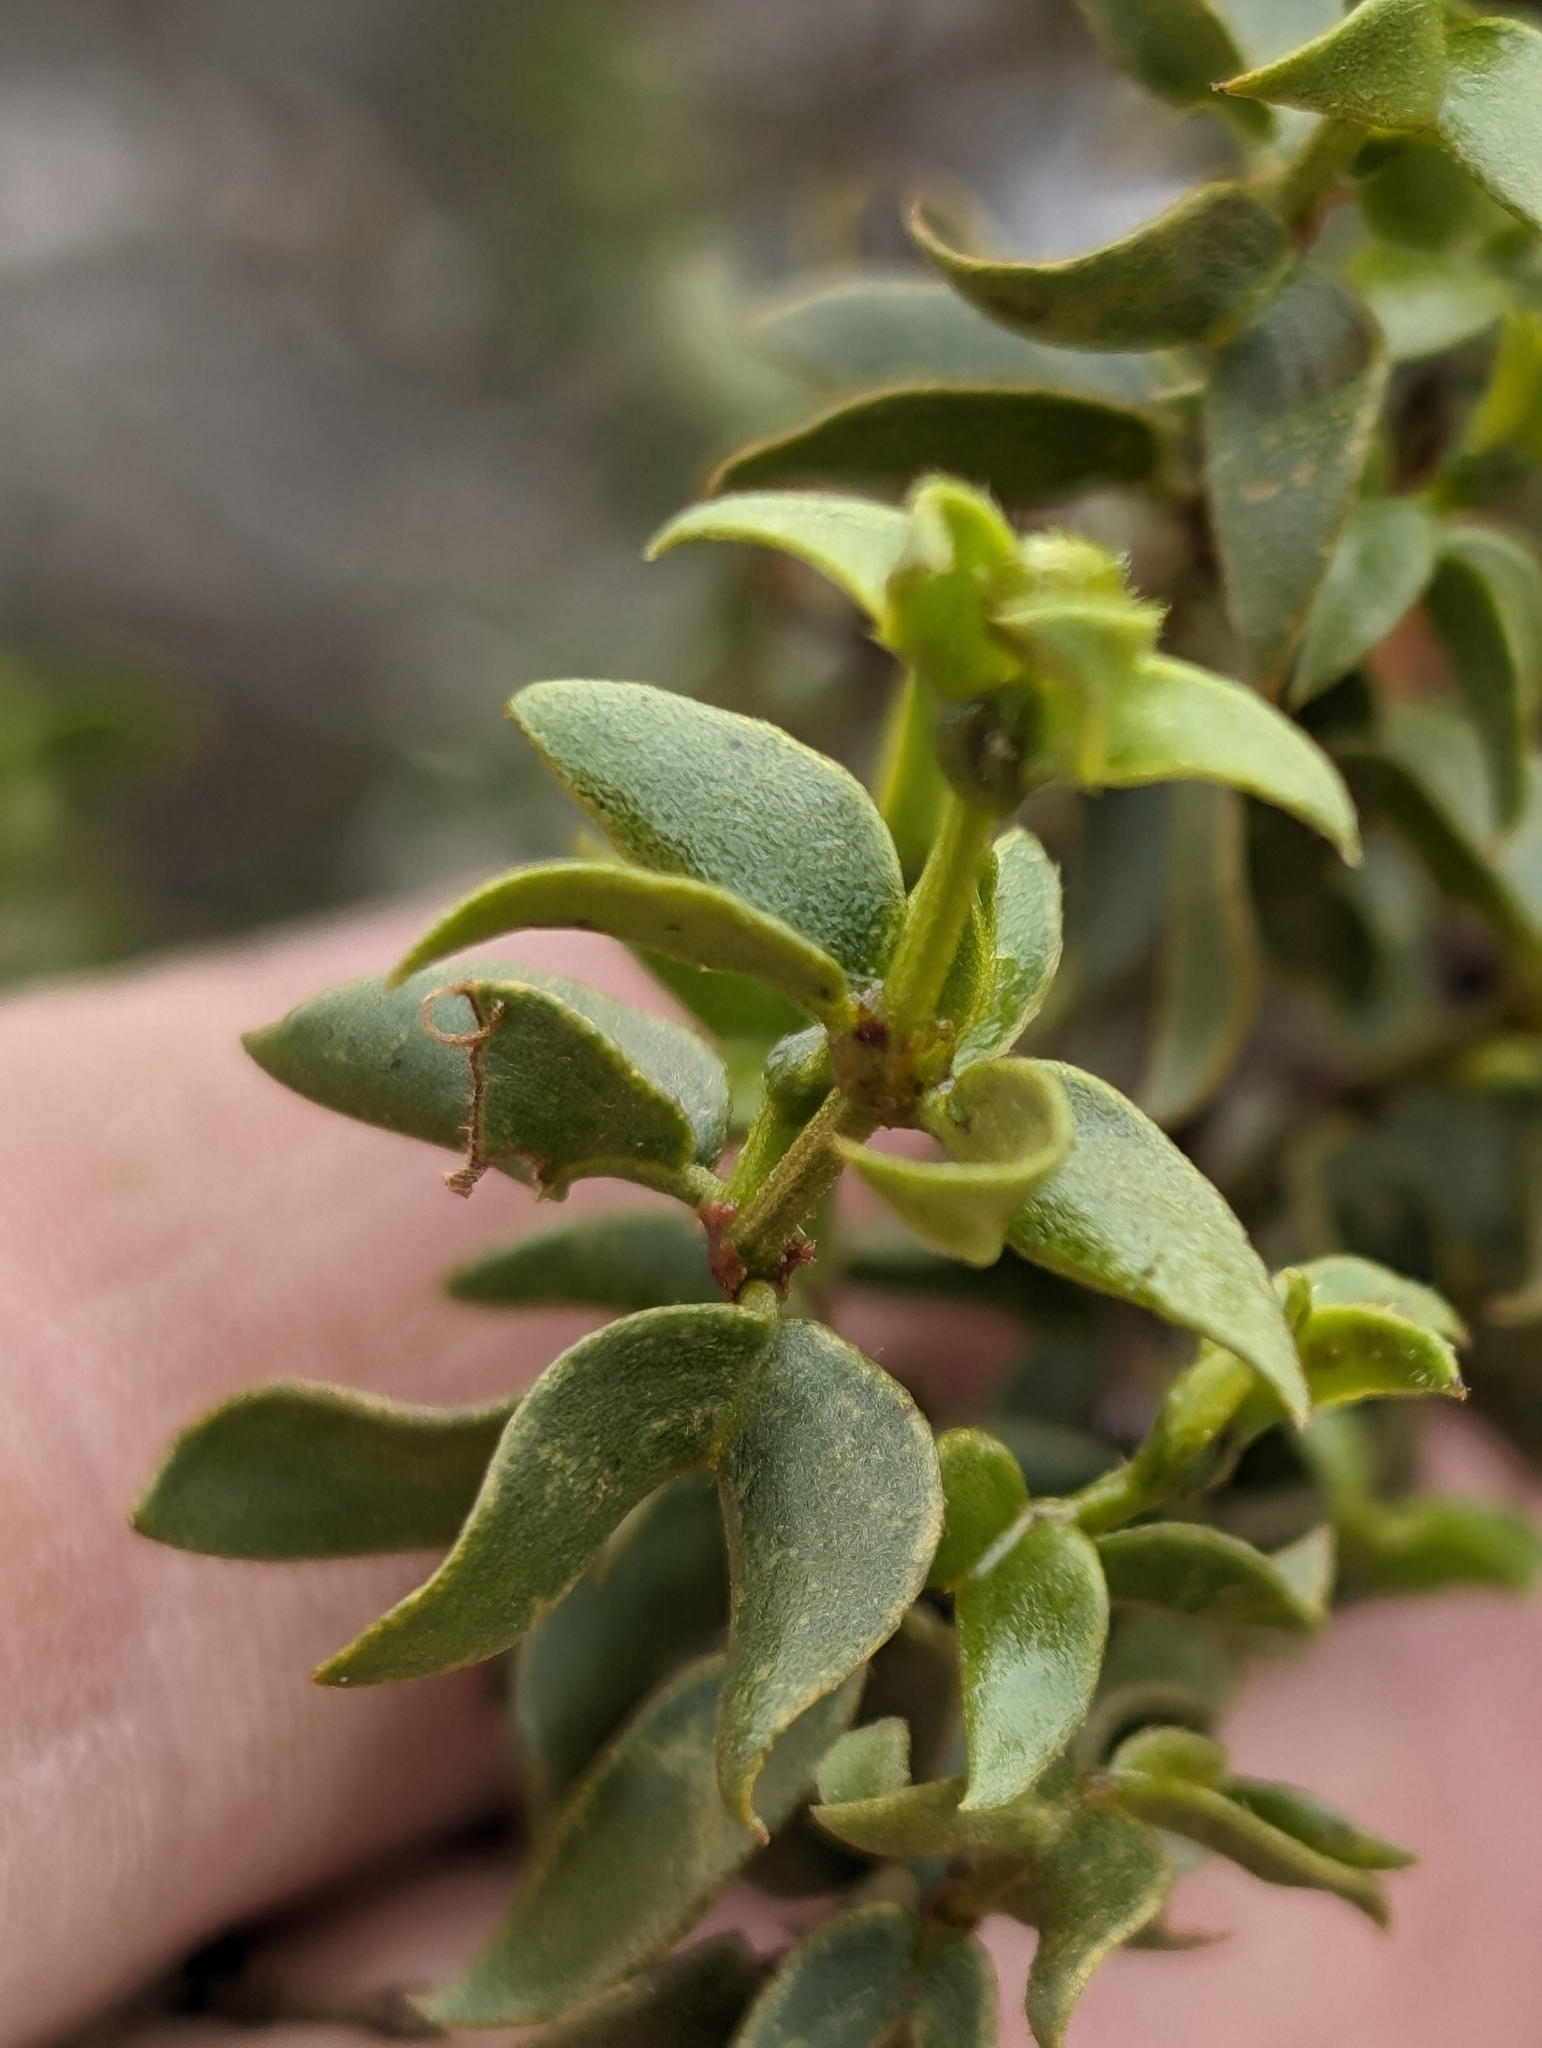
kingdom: Plantae
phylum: Tracheophyta
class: Magnoliopsida
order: Zygophyllales
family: Zygophyllaceae
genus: Larrea
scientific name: Larrea tridentata
